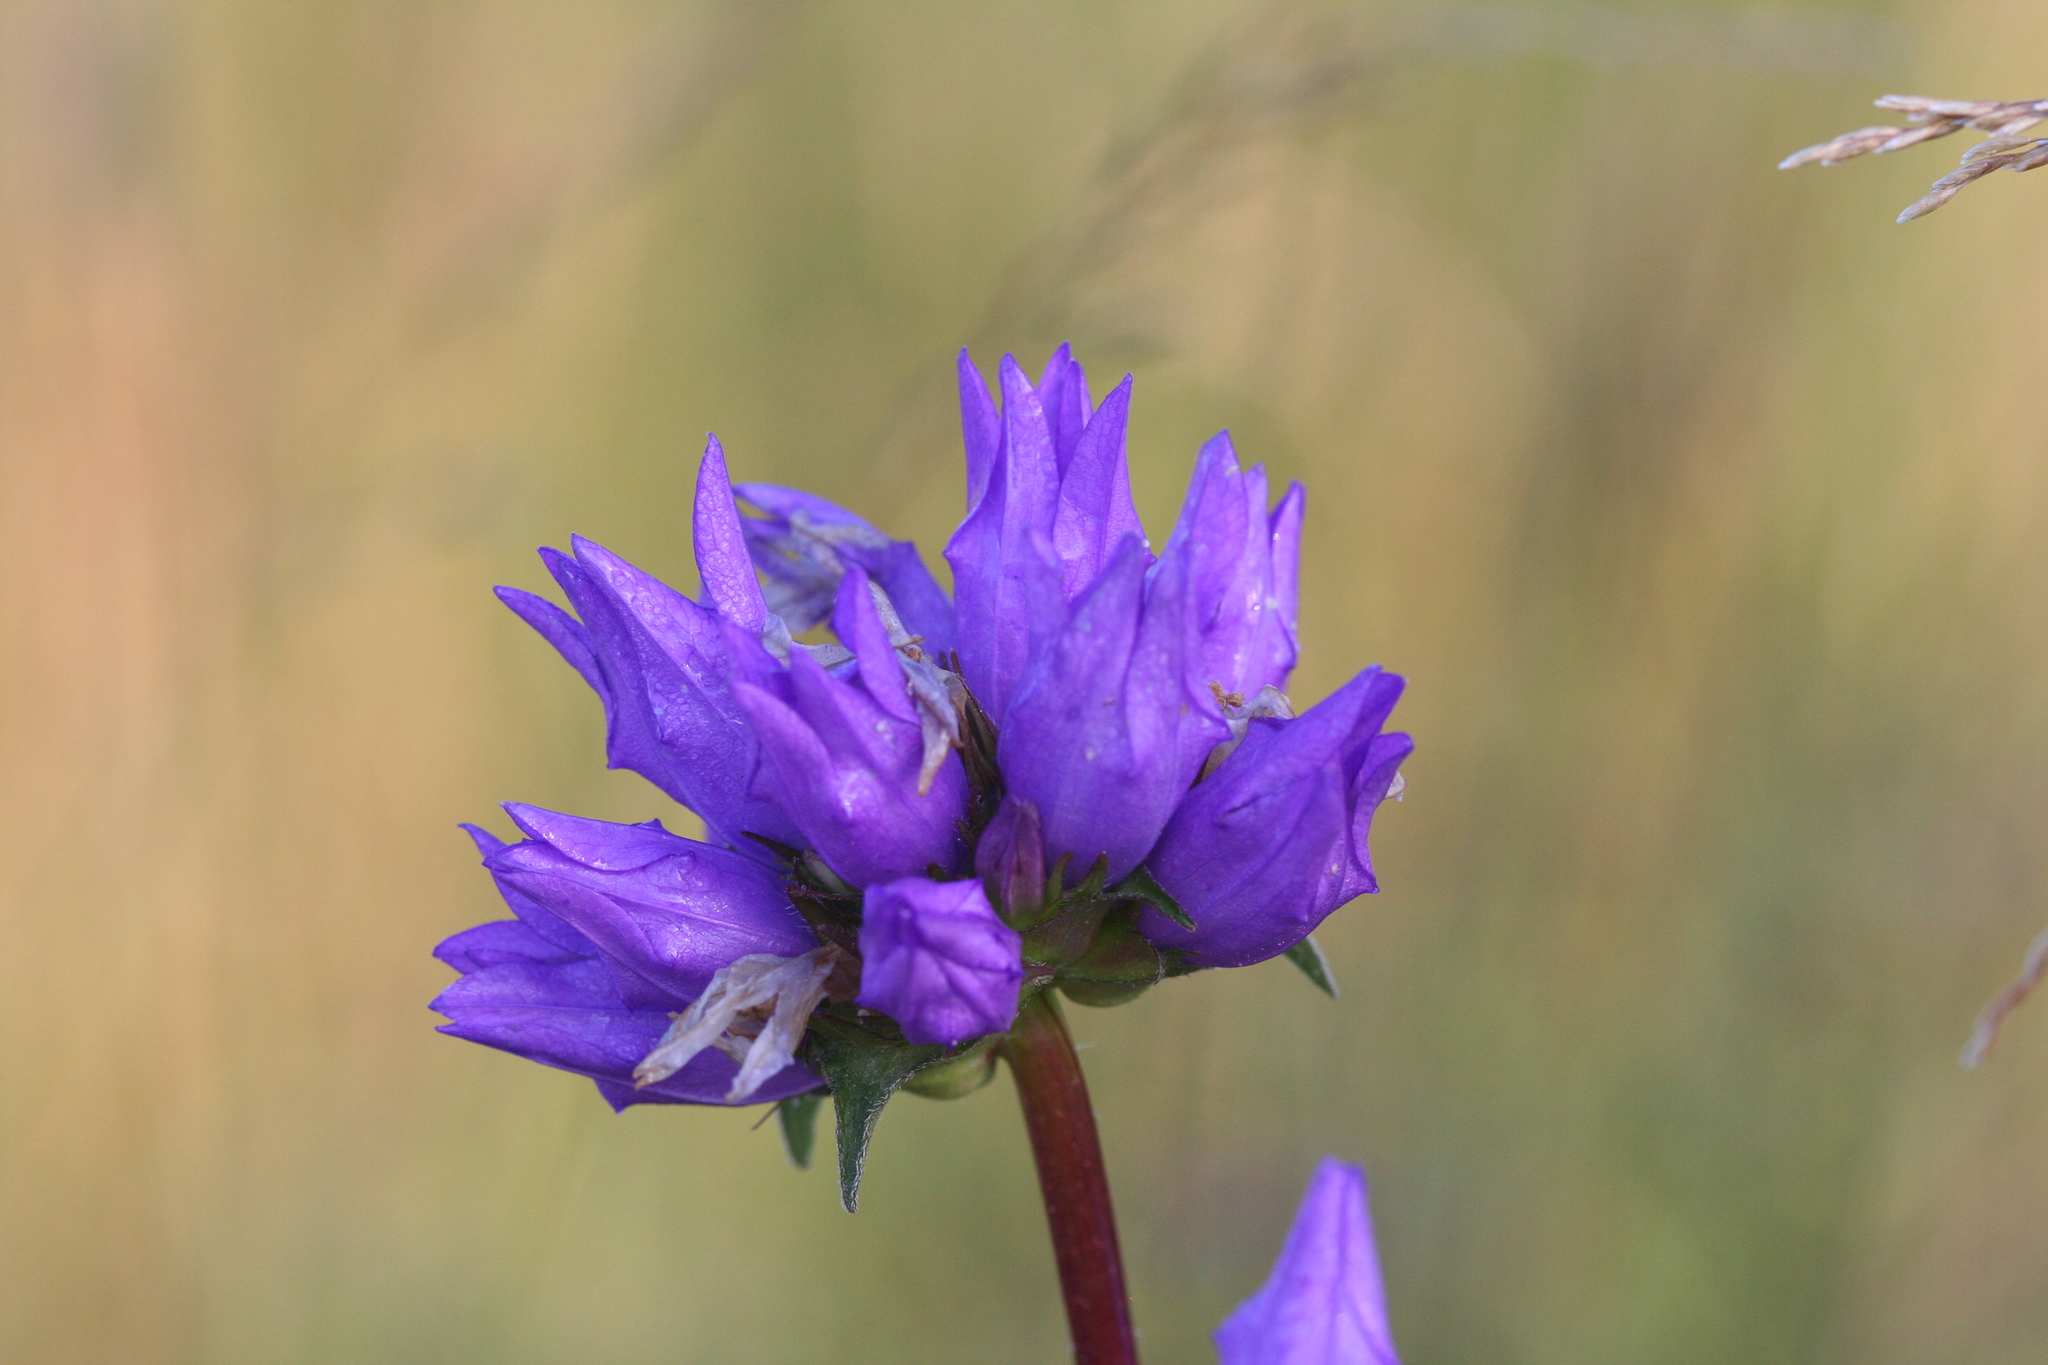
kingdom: Plantae
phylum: Tracheophyta
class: Magnoliopsida
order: Asterales
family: Campanulaceae
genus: Campanula
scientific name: Campanula glomerata
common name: Clustered bellflower
